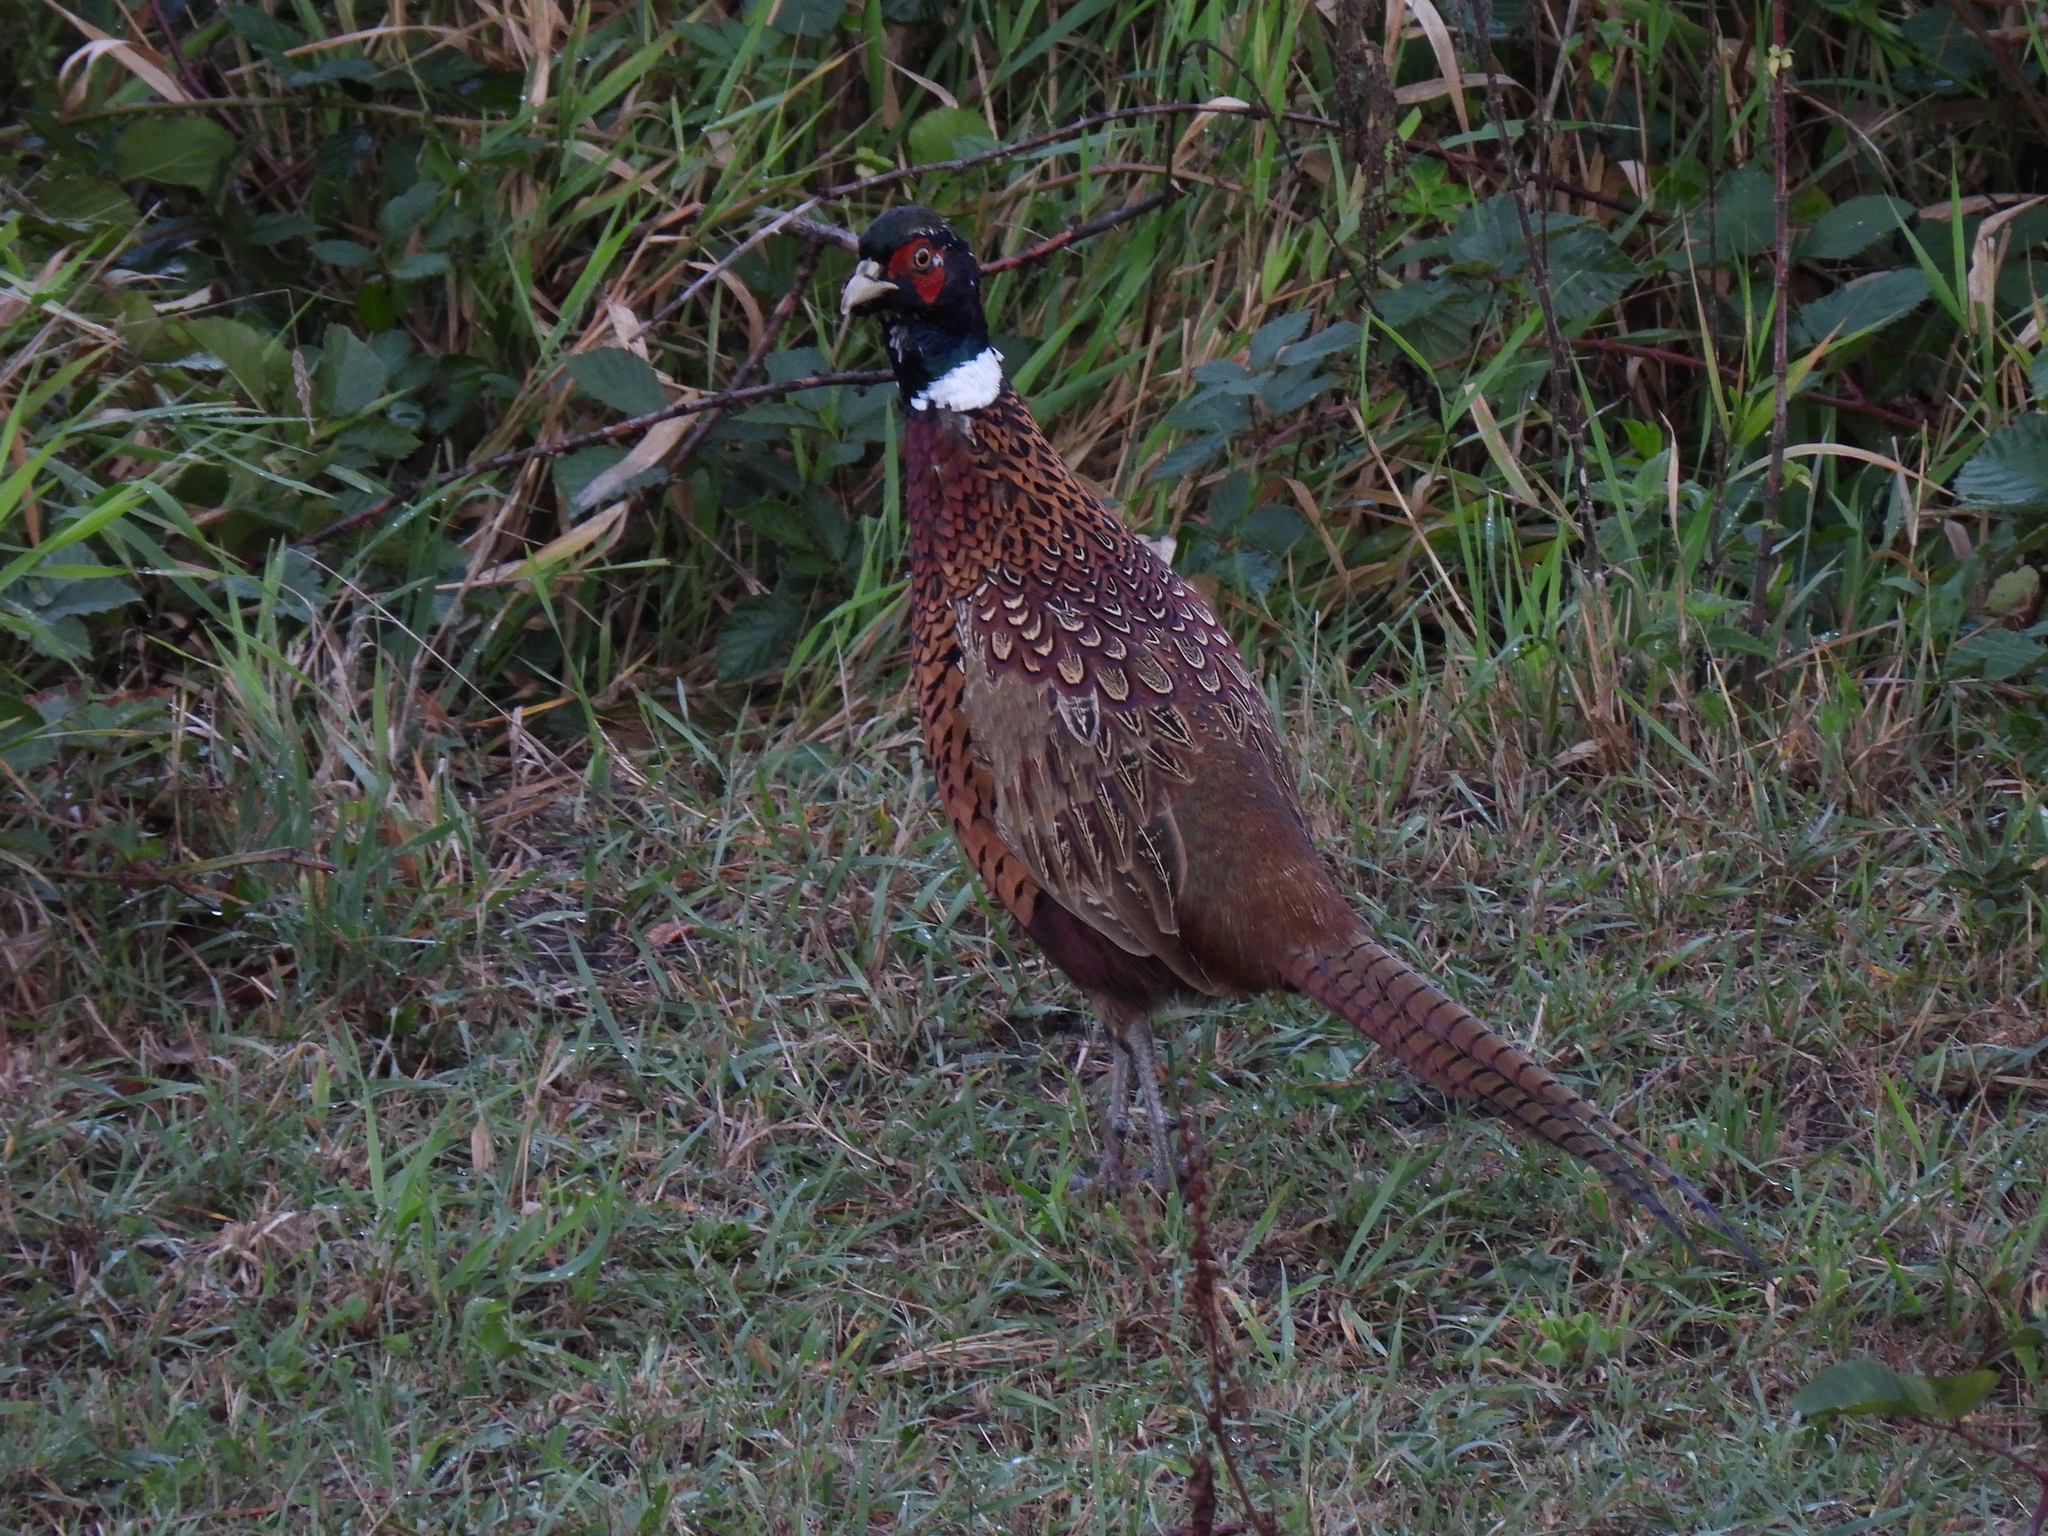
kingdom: Animalia
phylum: Chordata
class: Aves
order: Galliformes
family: Phasianidae
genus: Phasianus
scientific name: Phasianus colchicus
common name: Common pheasant
